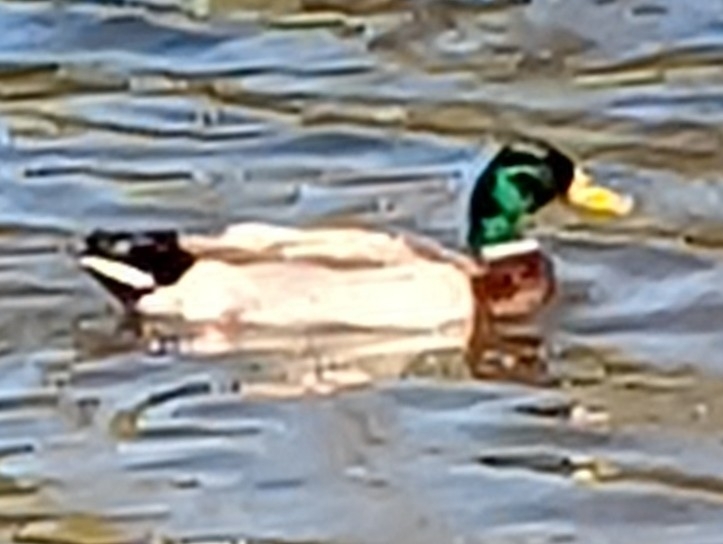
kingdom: Animalia
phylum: Chordata
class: Aves
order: Anseriformes
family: Anatidae
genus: Anas
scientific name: Anas platyrhynchos
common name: Mallard
